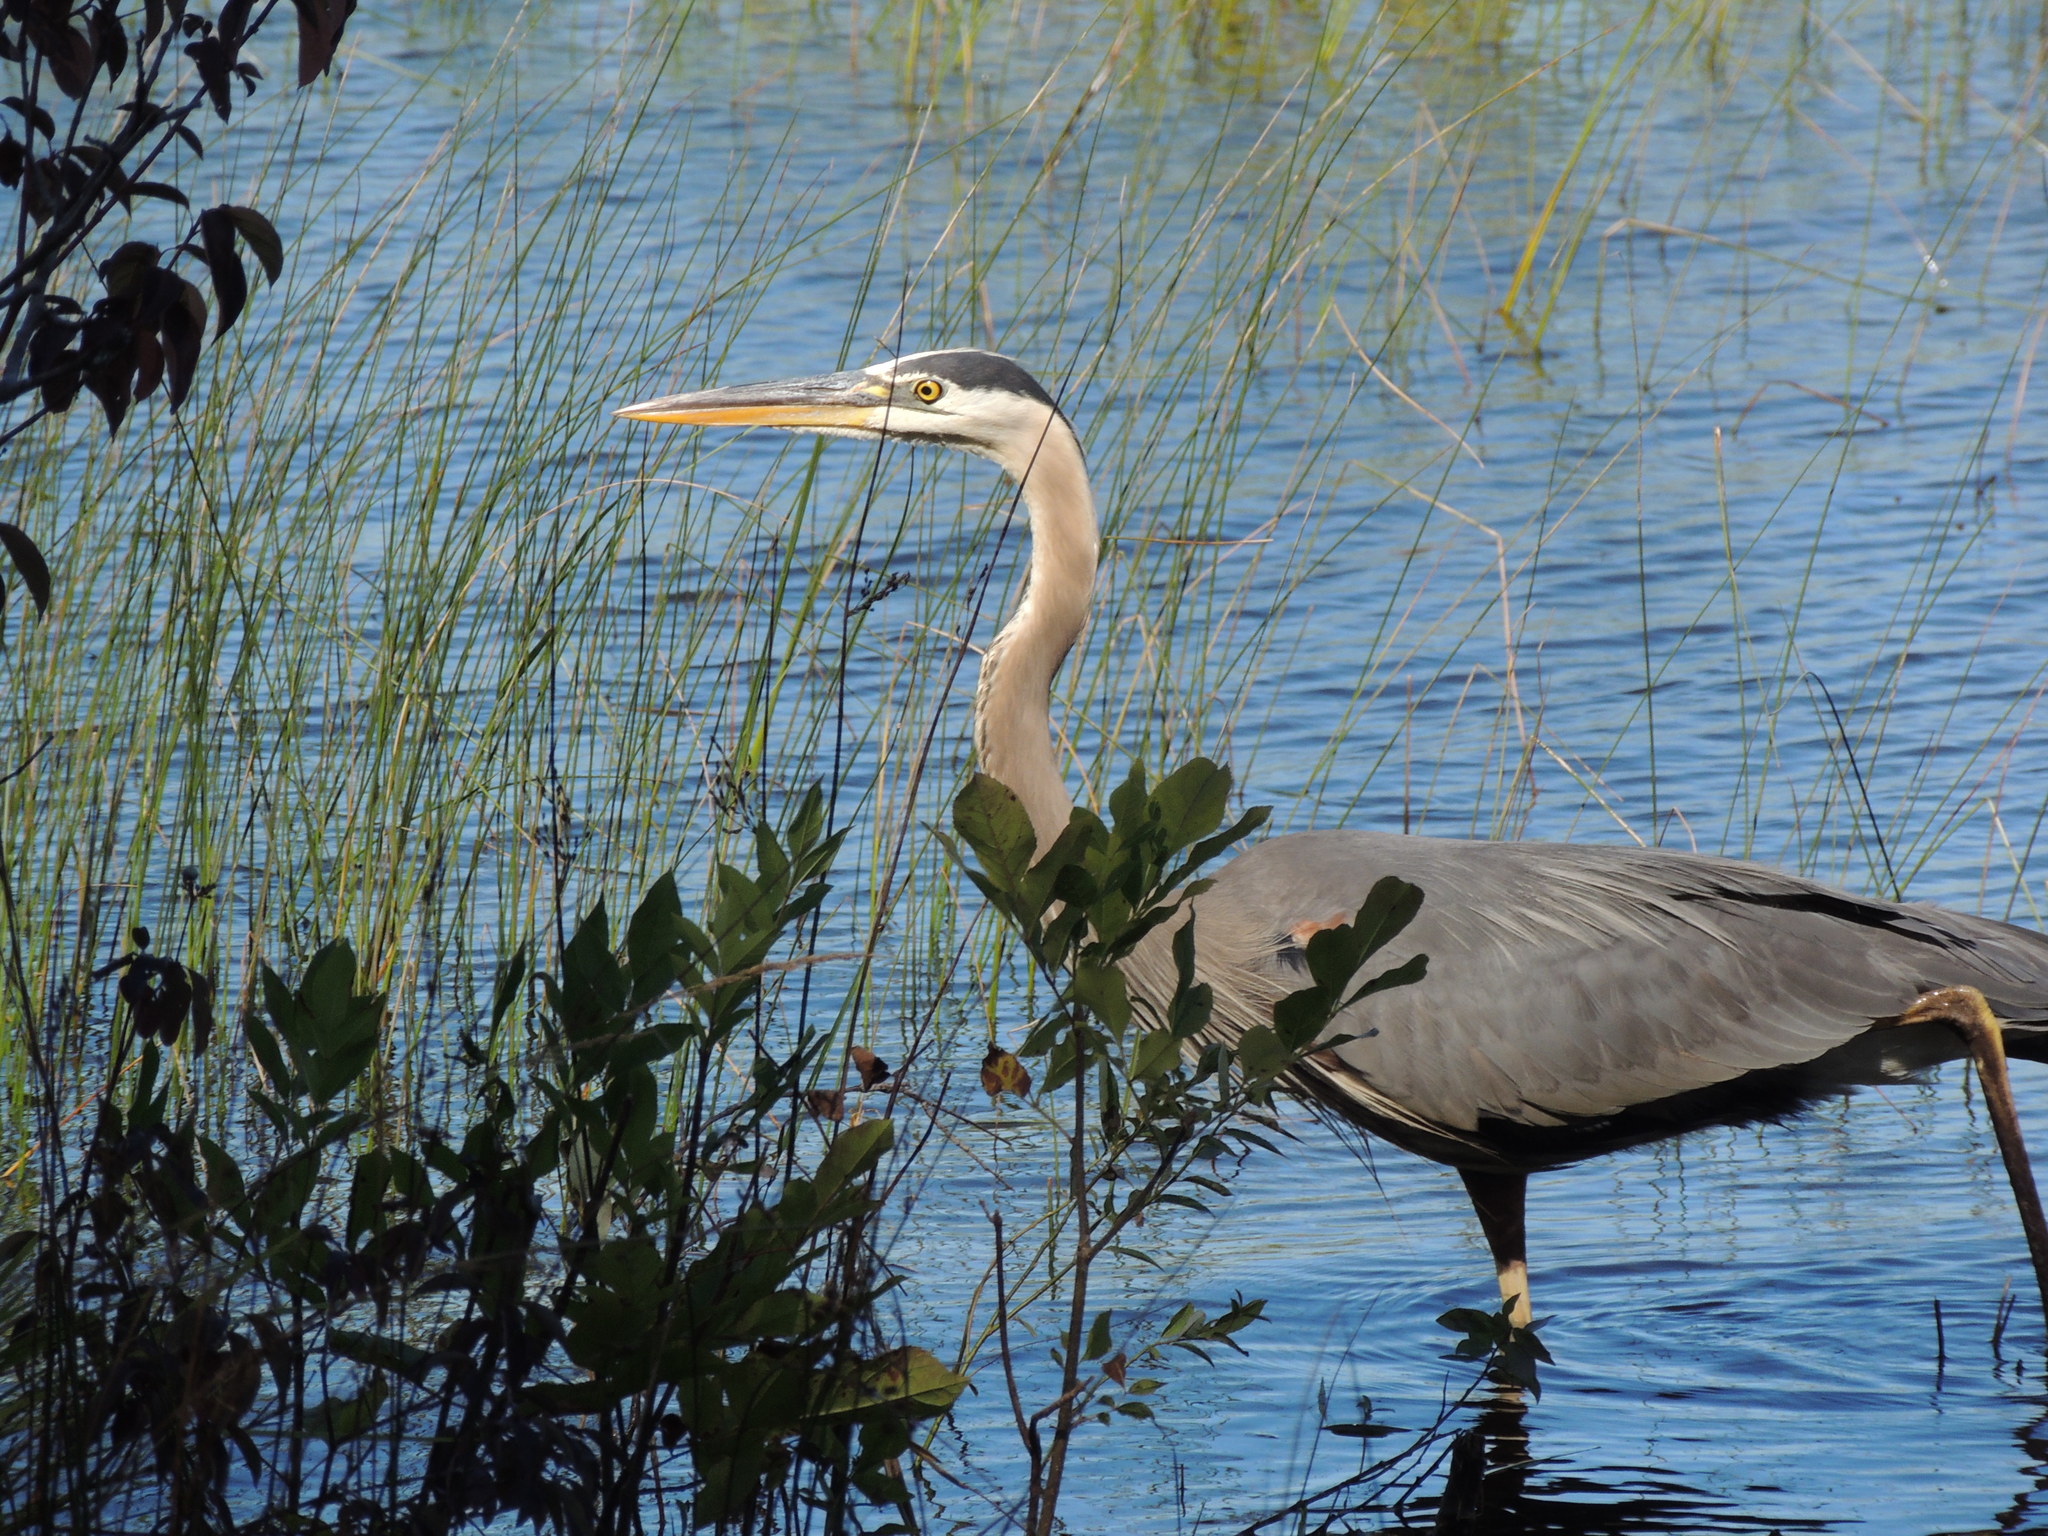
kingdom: Animalia
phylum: Chordata
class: Aves
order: Pelecaniformes
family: Ardeidae
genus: Ardea
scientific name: Ardea herodias
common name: Great blue heron
